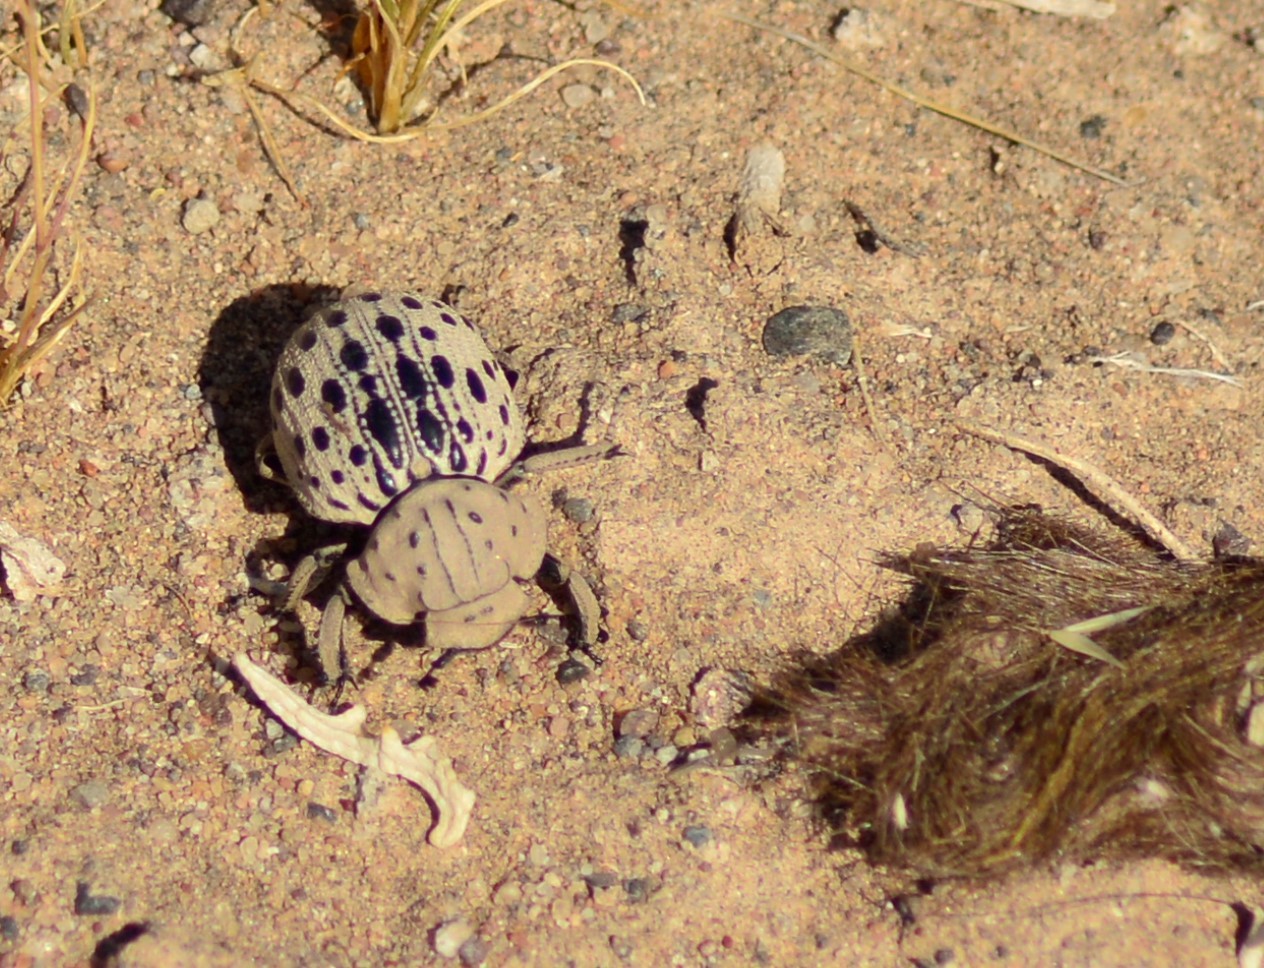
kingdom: Animalia
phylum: Arthropoda
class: Insecta
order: Coleoptera
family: Trogidae
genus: Omorgus
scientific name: Omorgus pastillarius
